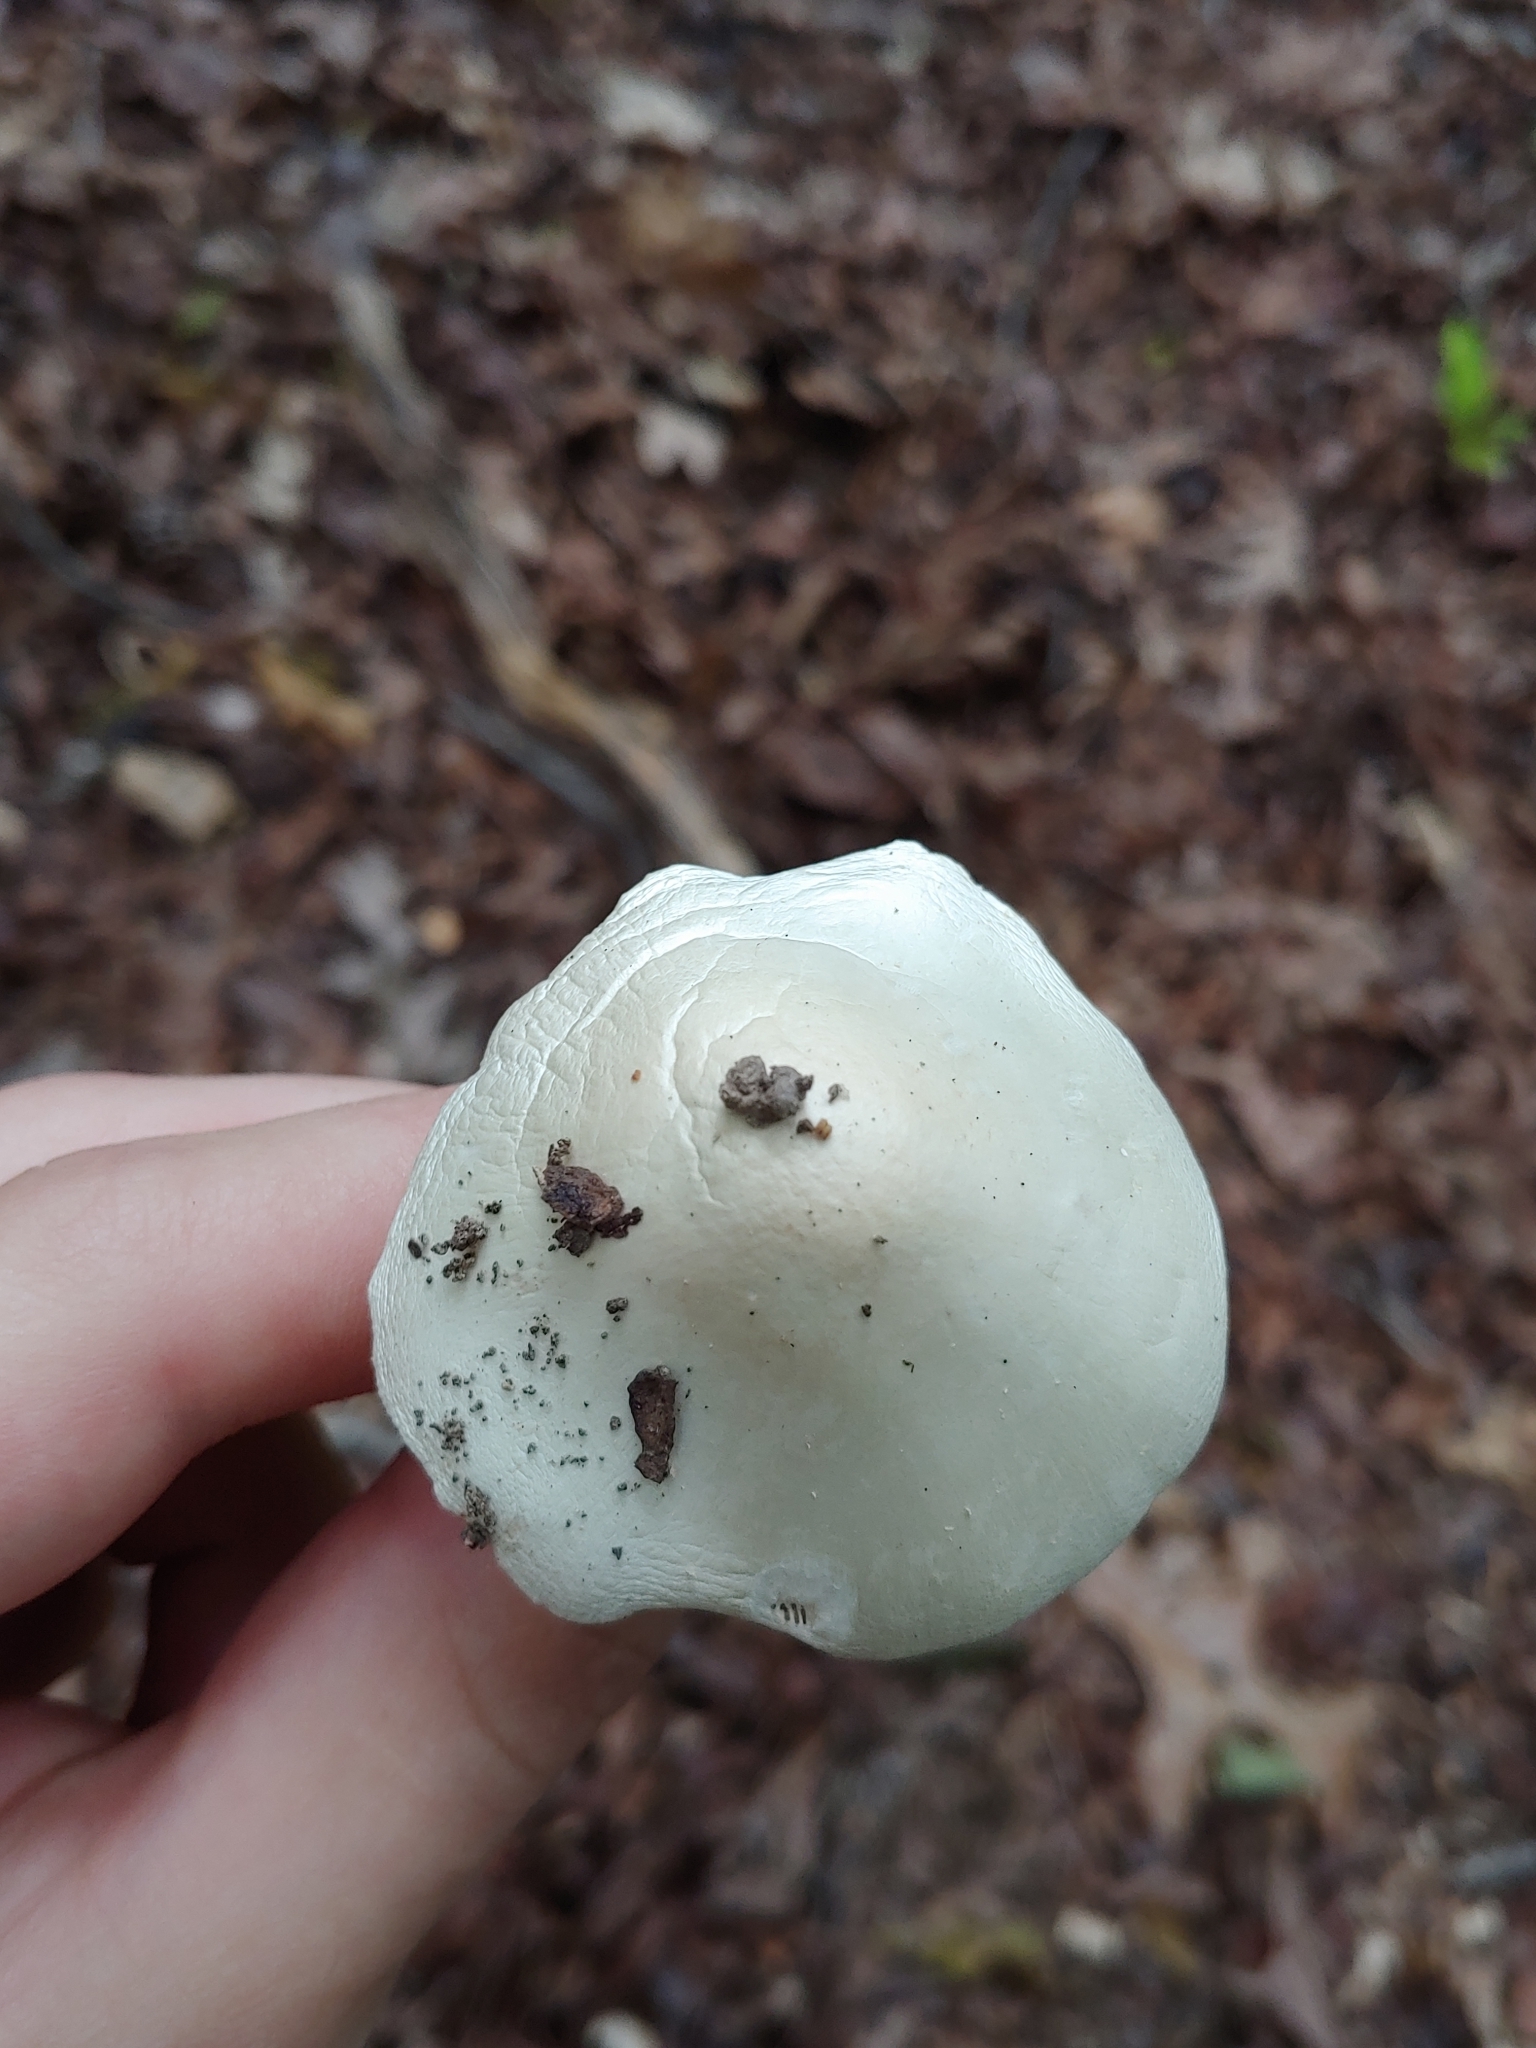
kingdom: Fungi
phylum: Basidiomycota
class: Agaricomycetes
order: Agaricales
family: Amanitaceae
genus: Amanita
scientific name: Amanita bisporigera
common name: Eastern north american destroying angel
